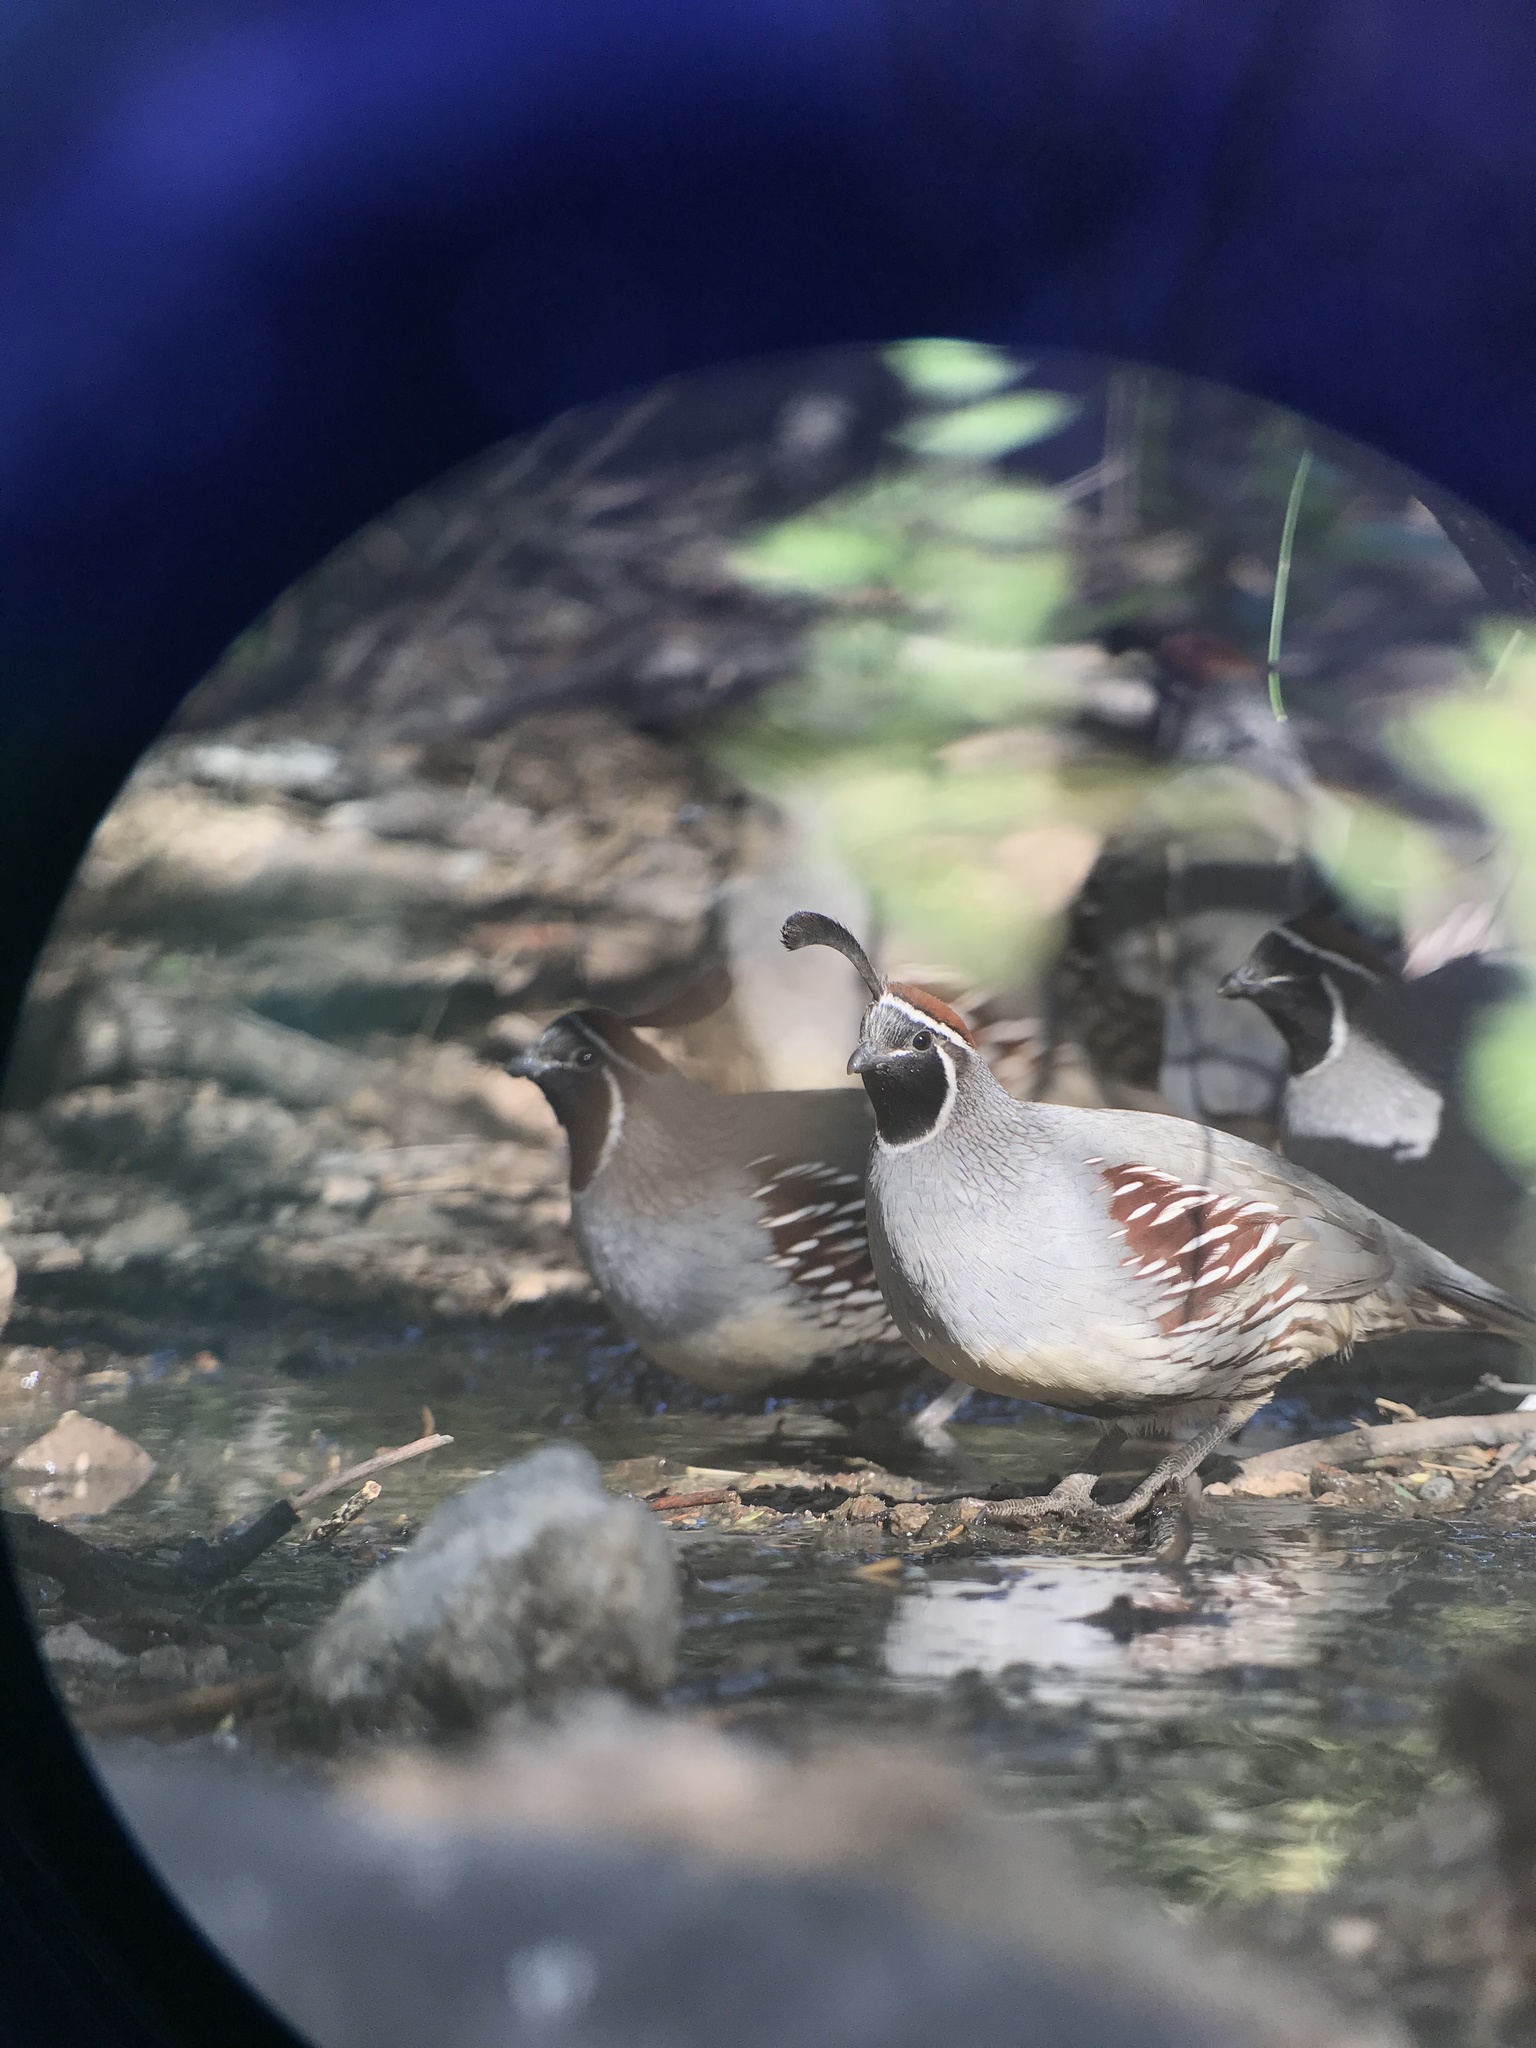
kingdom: Animalia
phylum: Chordata
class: Aves
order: Galliformes
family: Odontophoridae
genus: Callipepla
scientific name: Callipepla gambelii
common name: Gambel's quail
